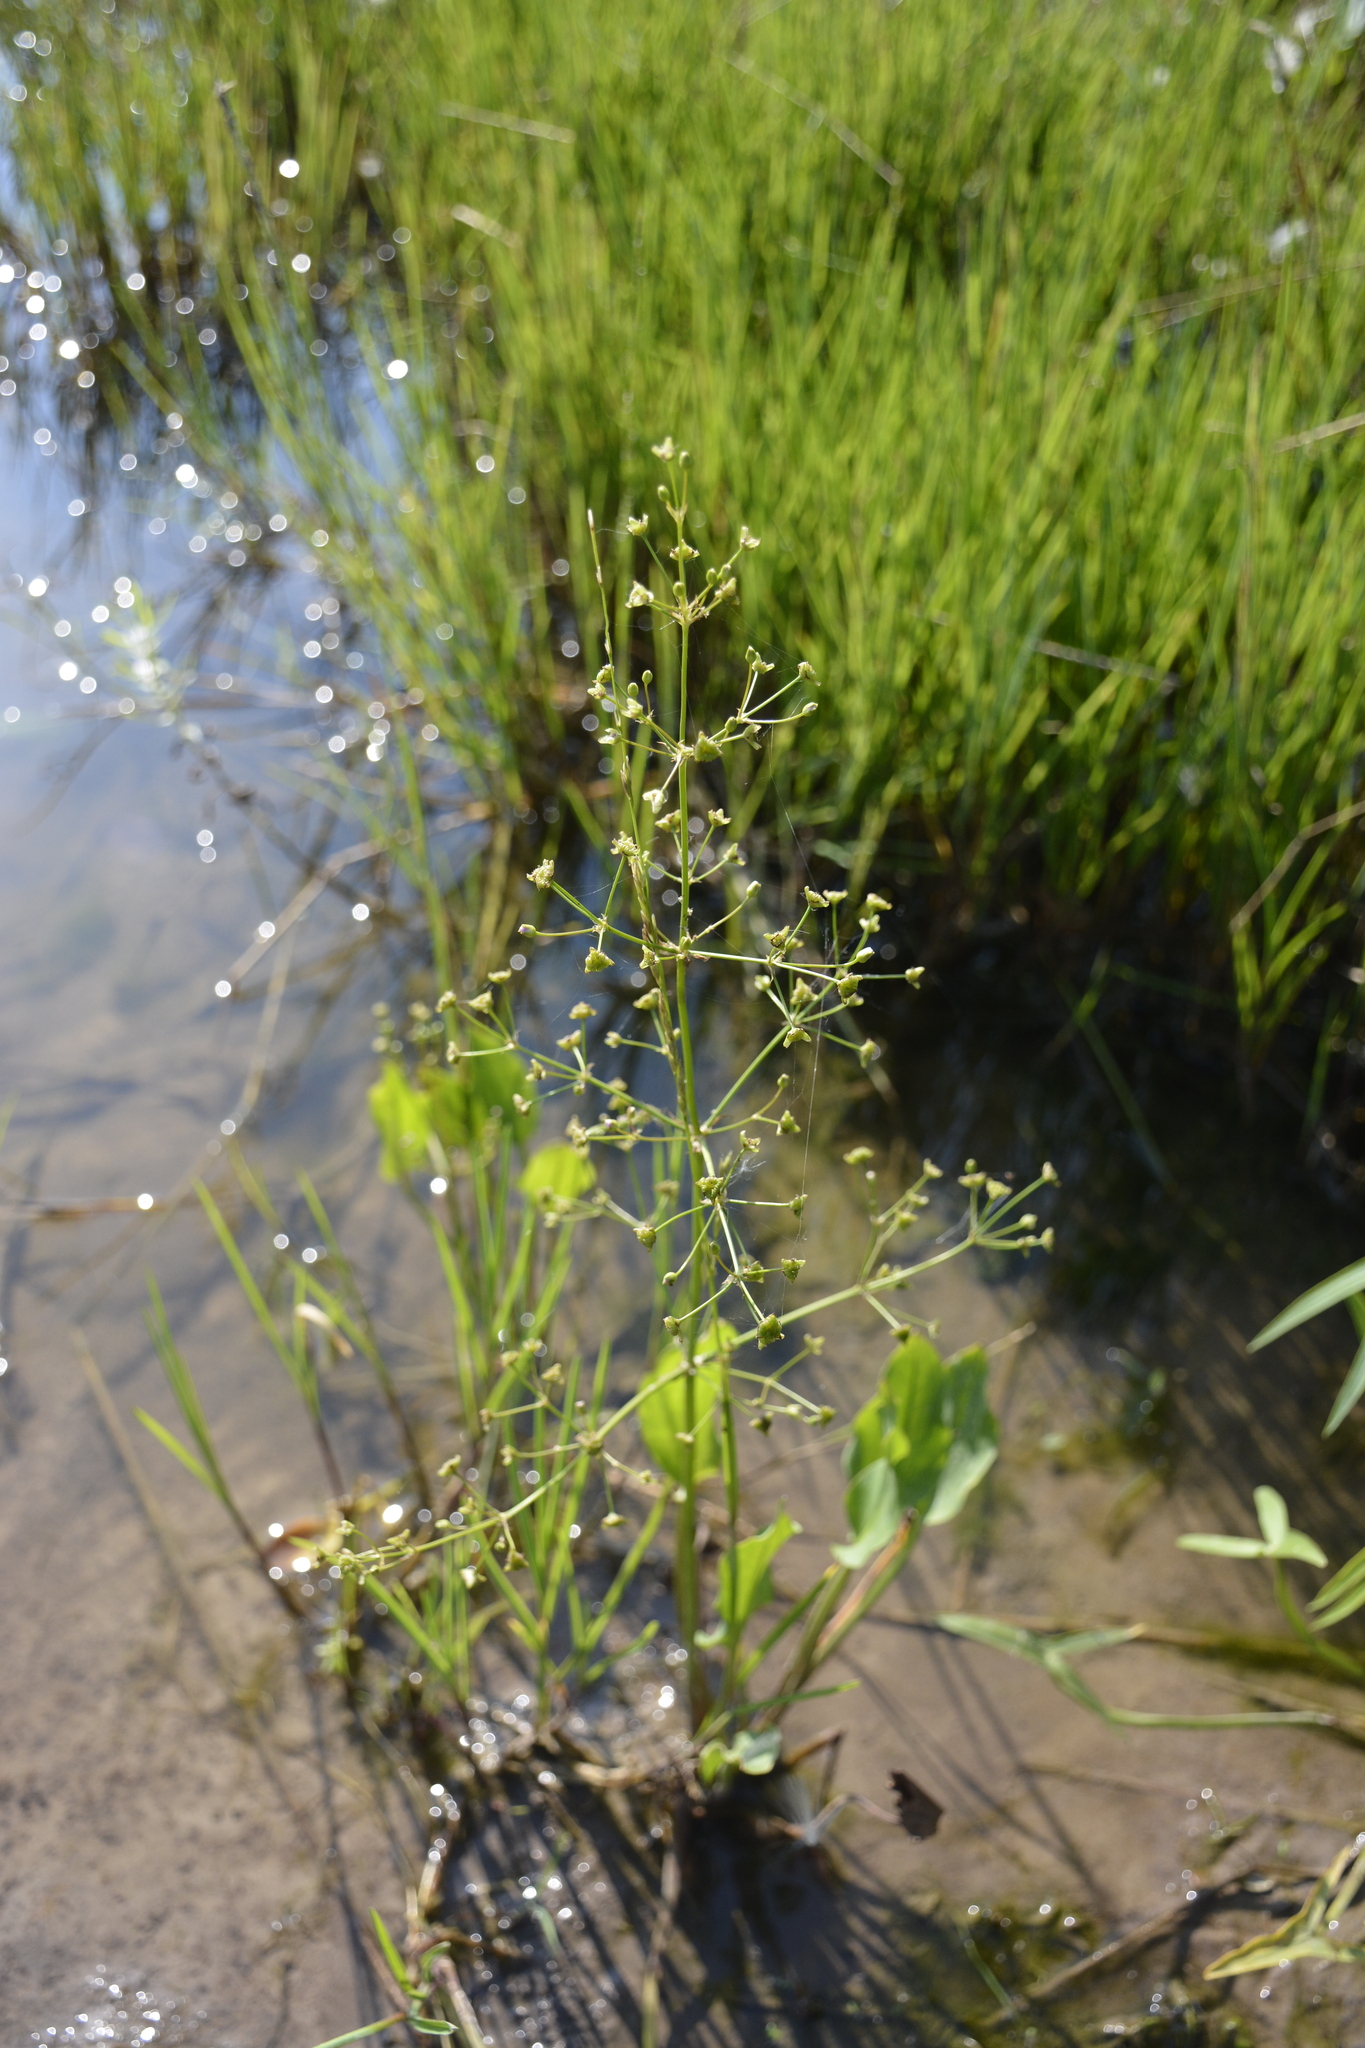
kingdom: Plantae
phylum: Tracheophyta
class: Liliopsida
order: Alismatales
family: Alismataceae
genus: Alisma
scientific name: Alisma plantago-aquatica
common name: Water-plantain
